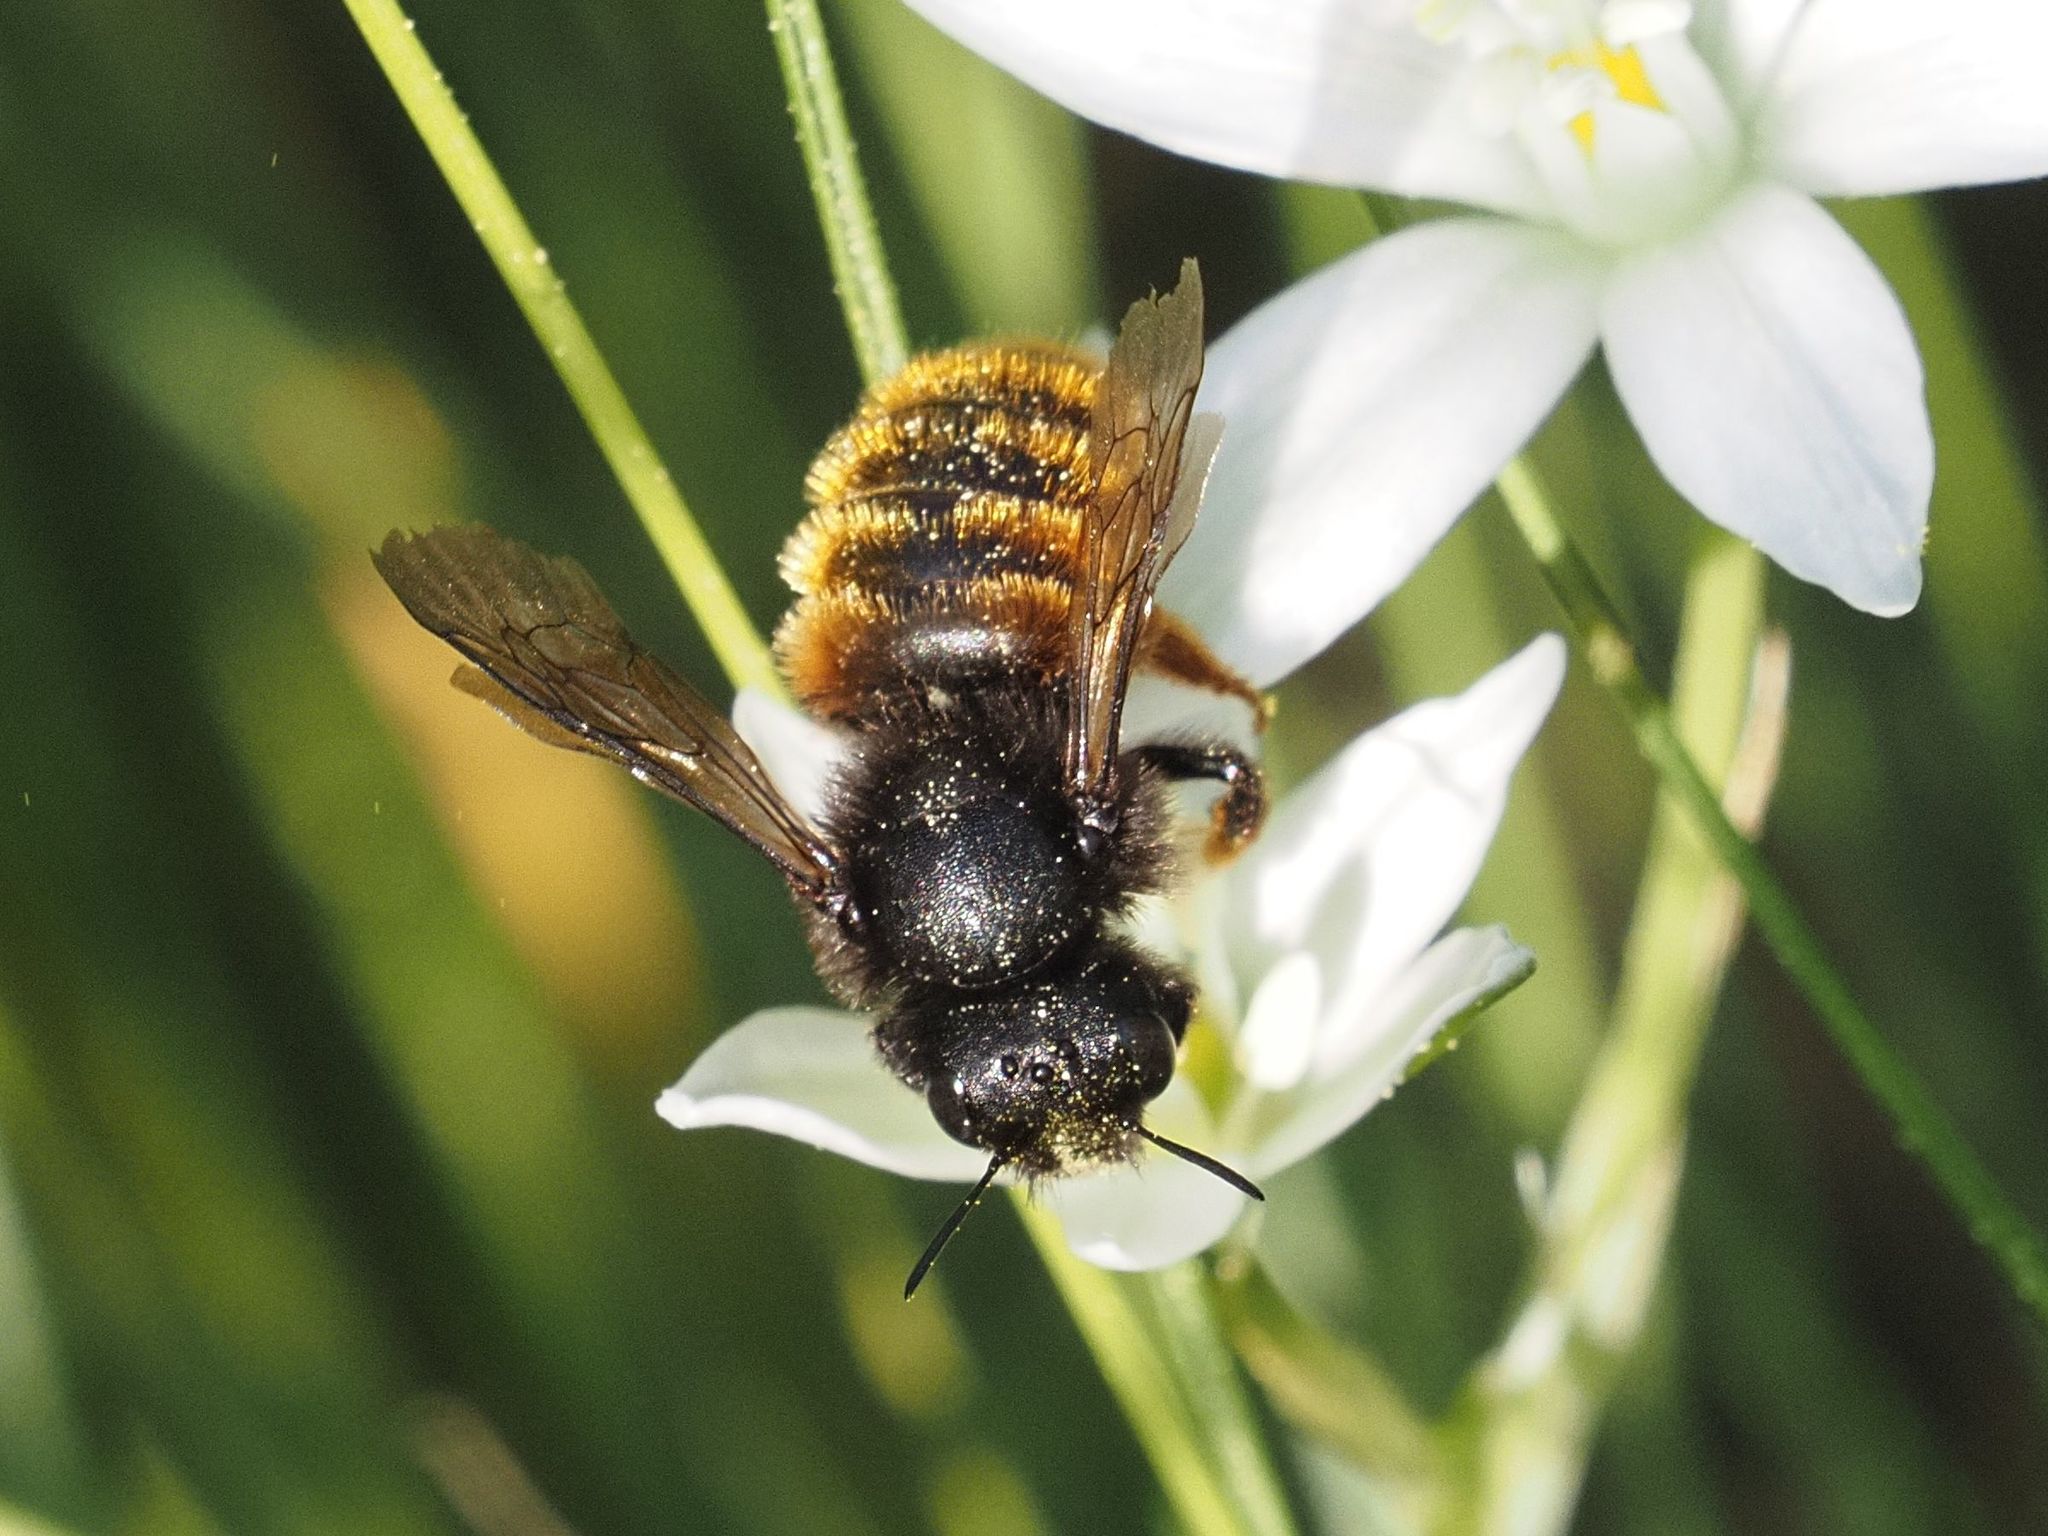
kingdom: Animalia
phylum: Arthropoda
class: Insecta
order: Hymenoptera
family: Megachilidae
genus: Osmia
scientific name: Osmia bicolor
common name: Red-tailed mason bee
